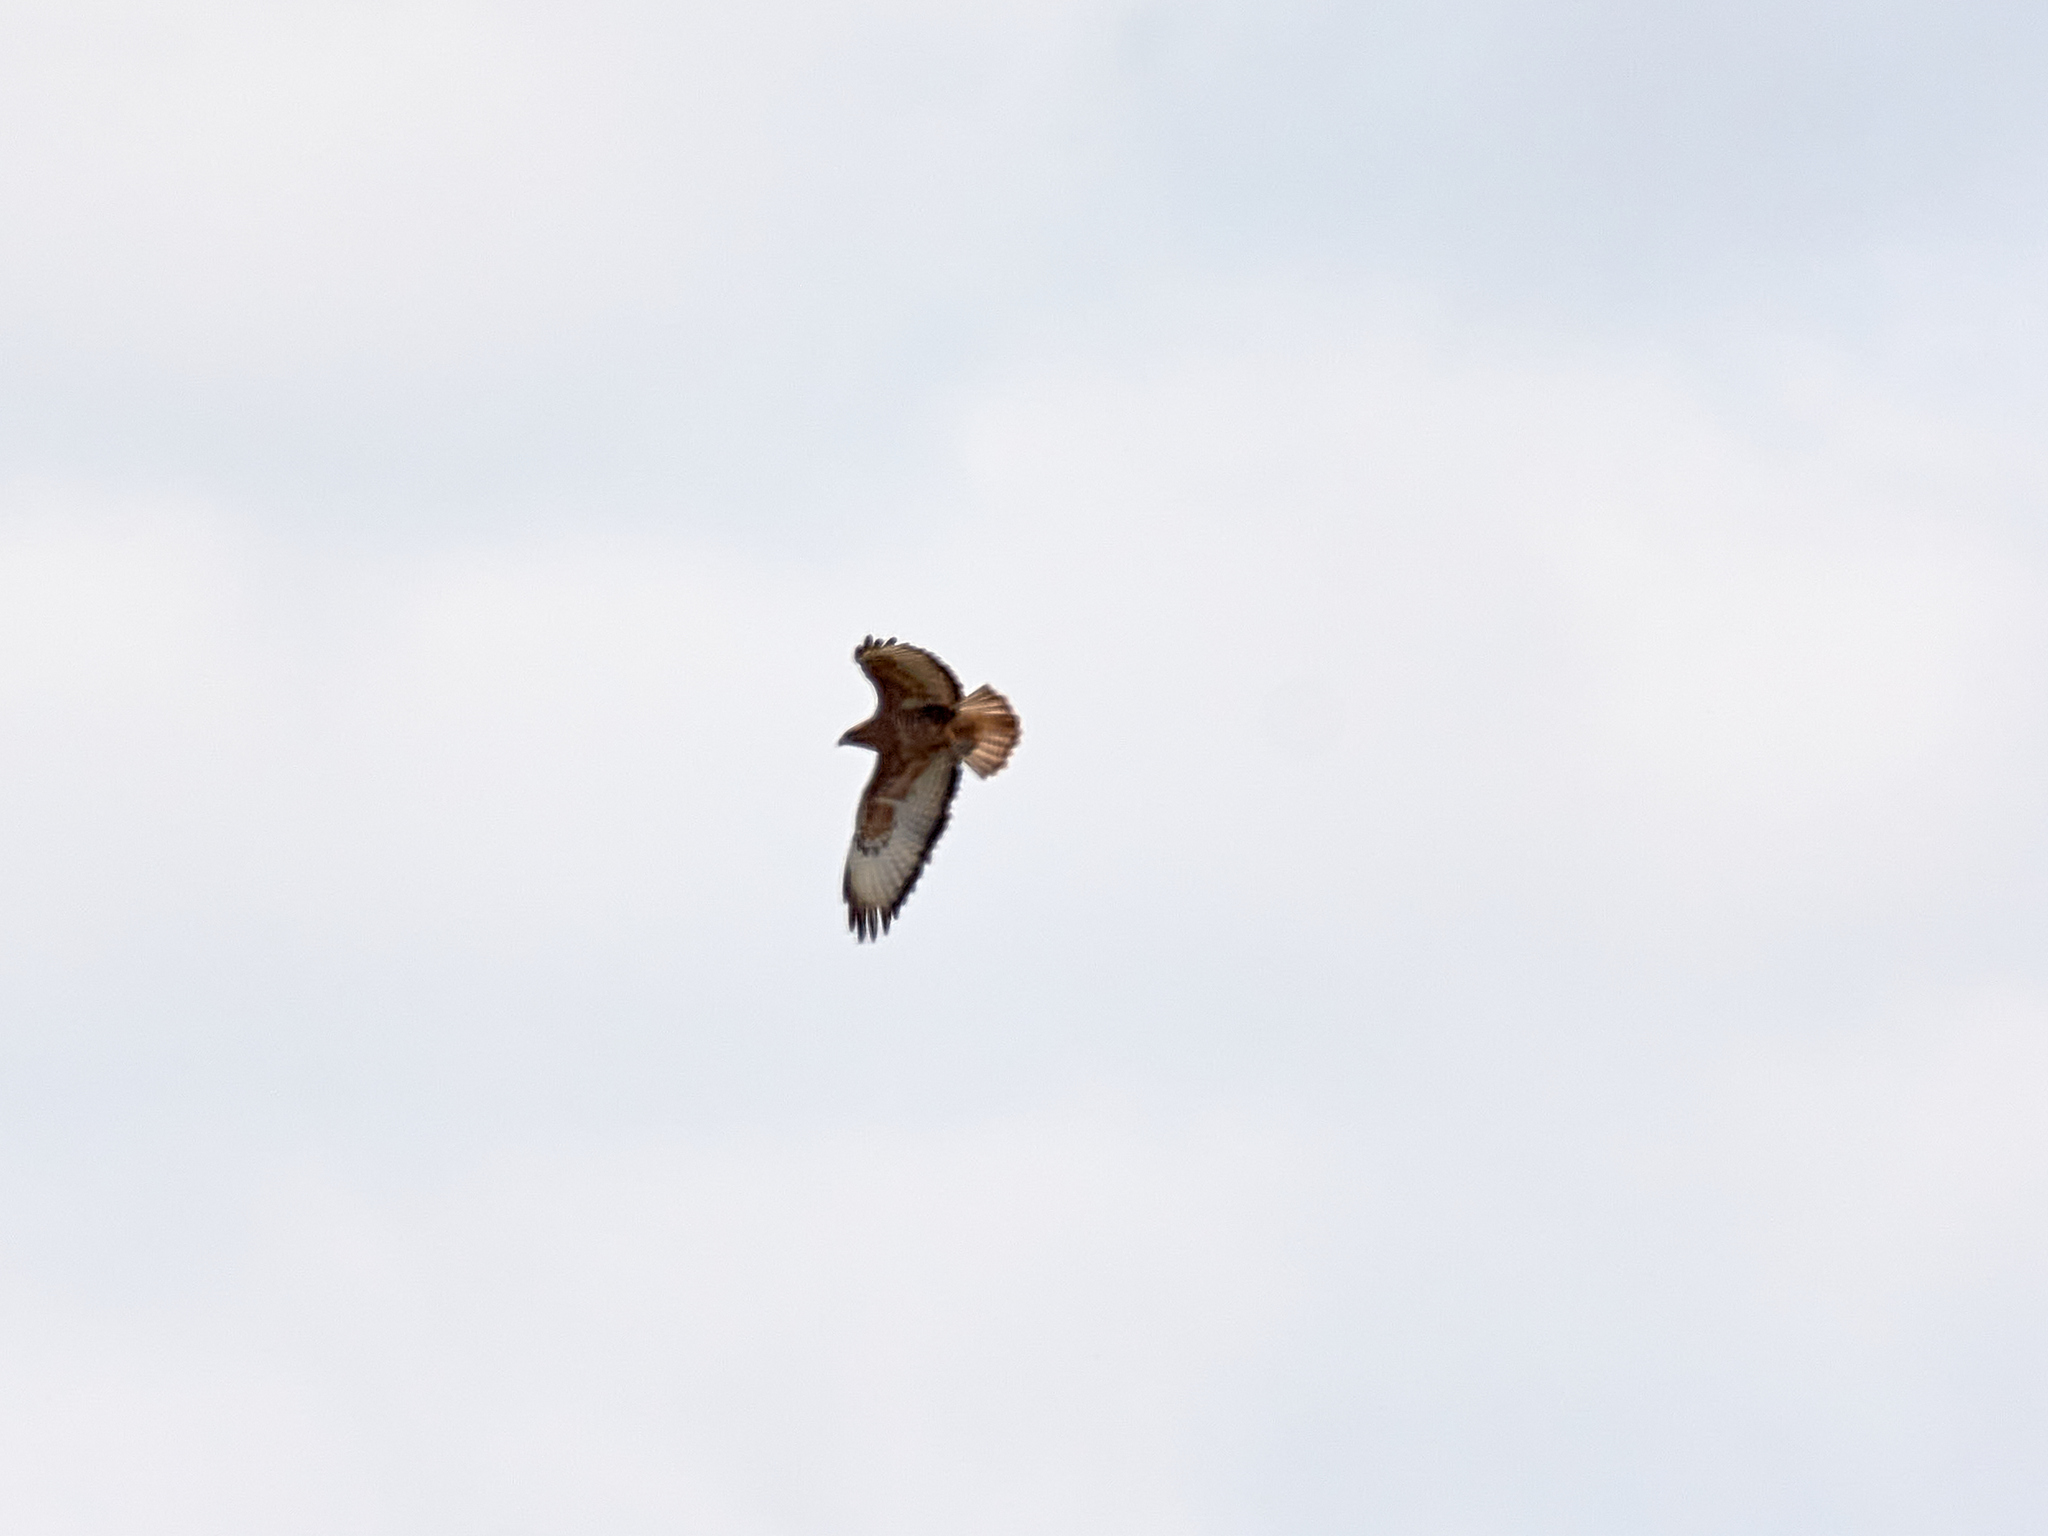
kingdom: Animalia
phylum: Chordata
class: Aves
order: Accipitriformes
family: Accipitridae
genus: Buteo
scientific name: Buteo buteo
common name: Common buzzard
